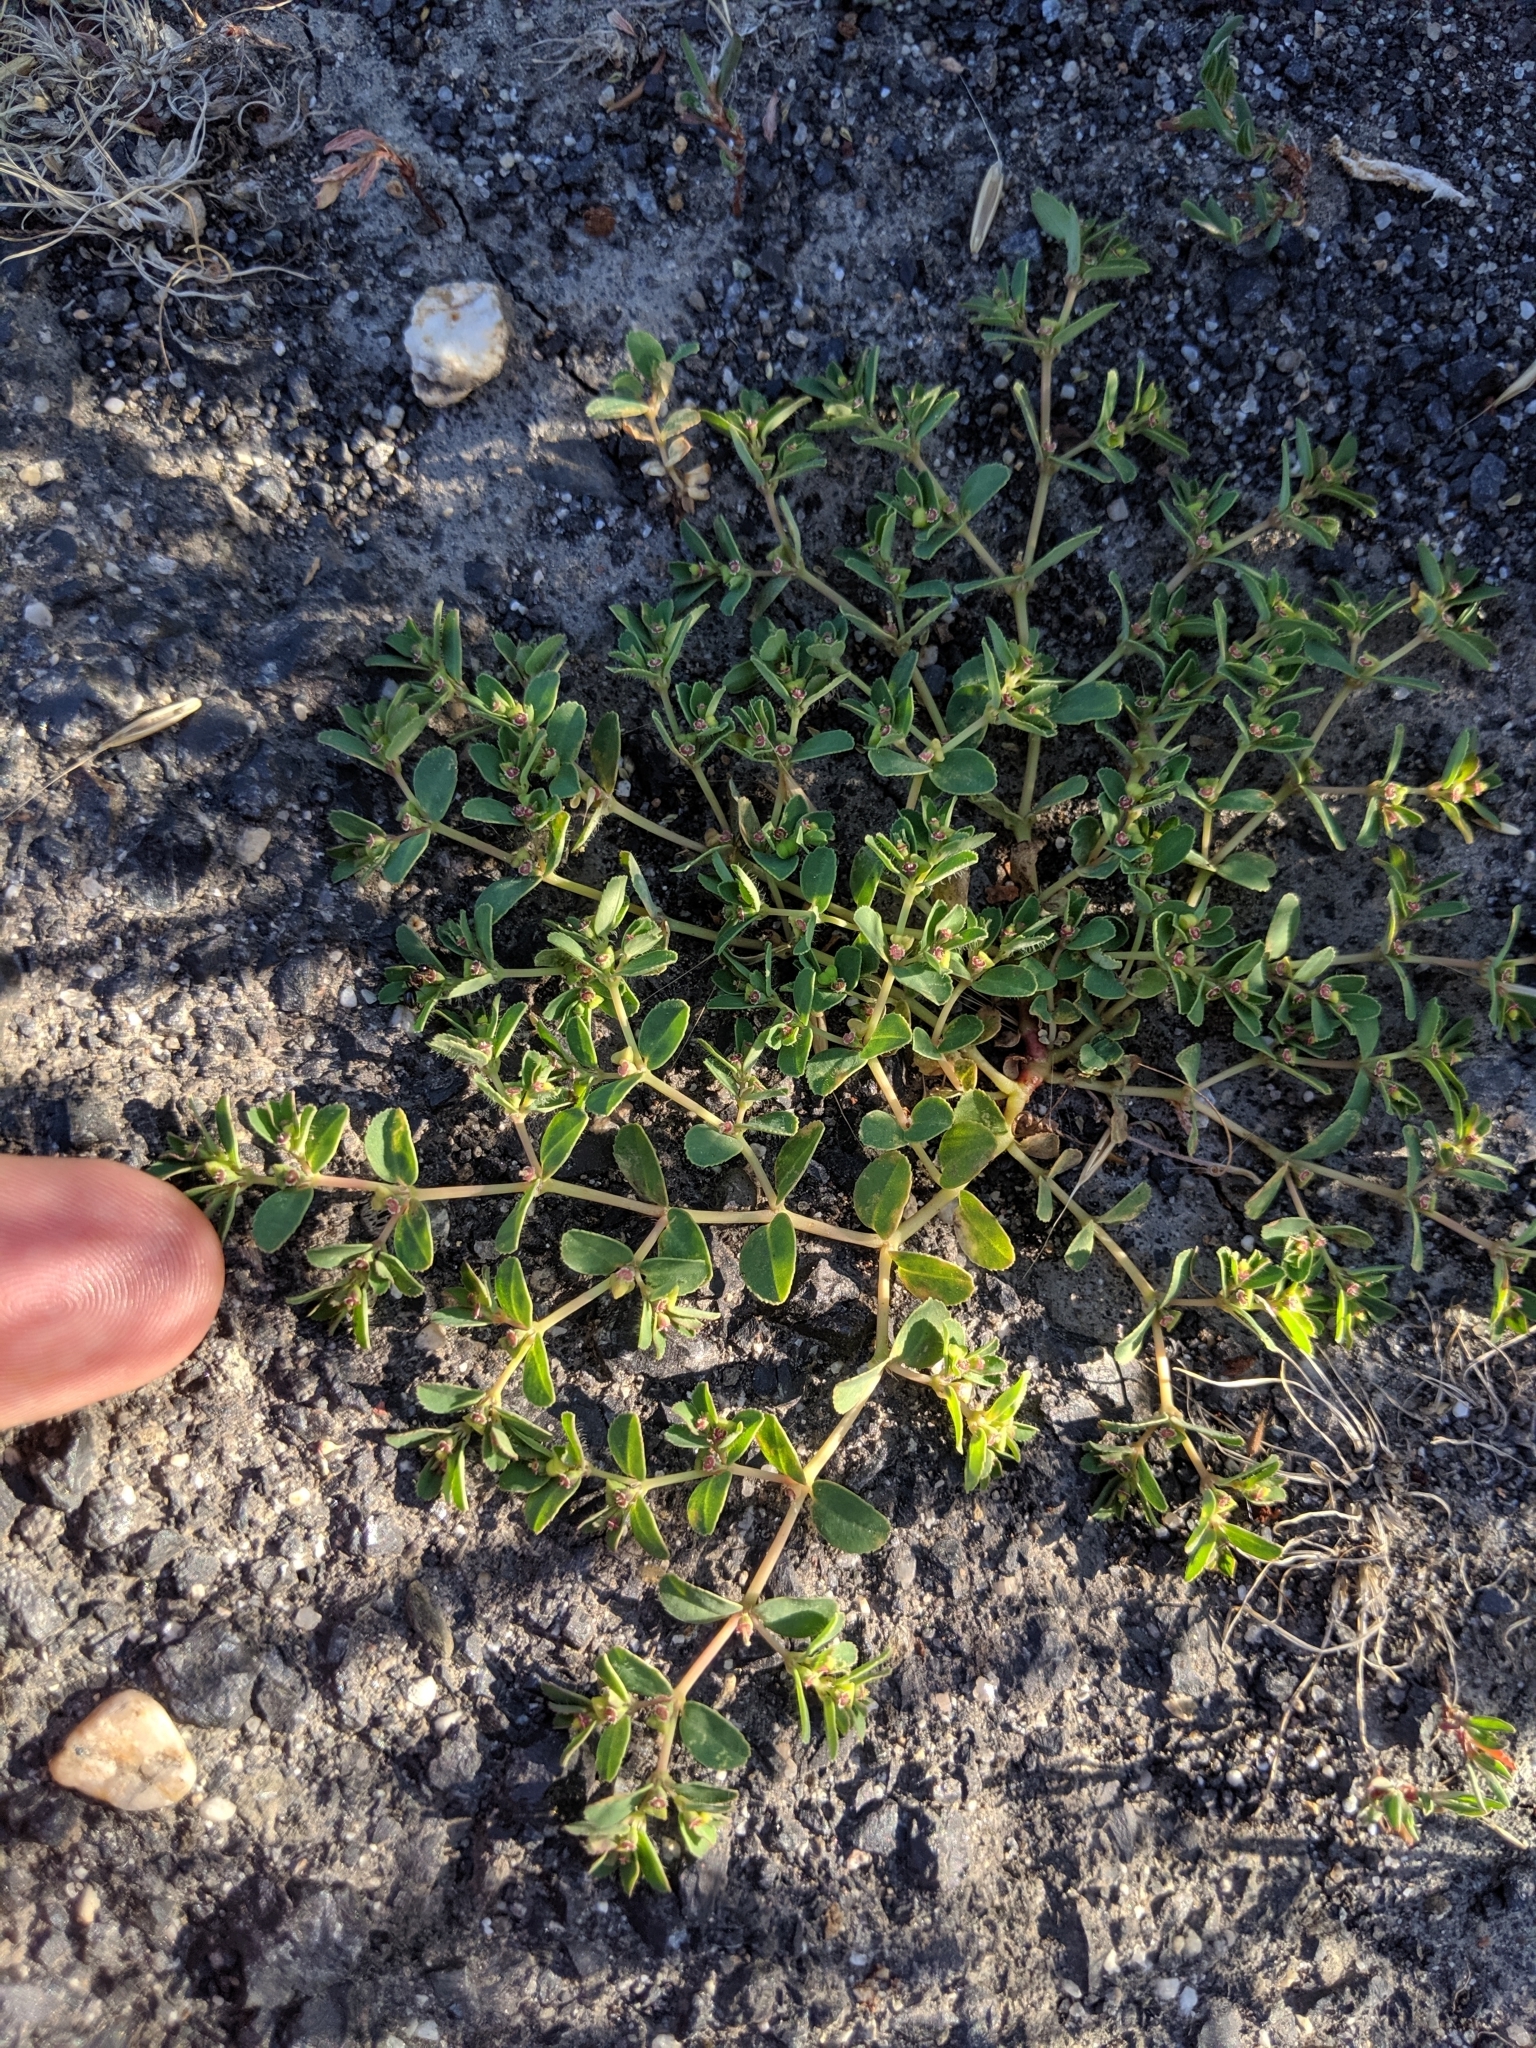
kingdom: Plantae
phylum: Tracheophyta
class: Magnoliopsida
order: Malpighiales
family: Euphorbiaceae
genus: Euphorbia
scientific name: Euphorbia serpillifolia
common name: Thyme-leaf spurge
